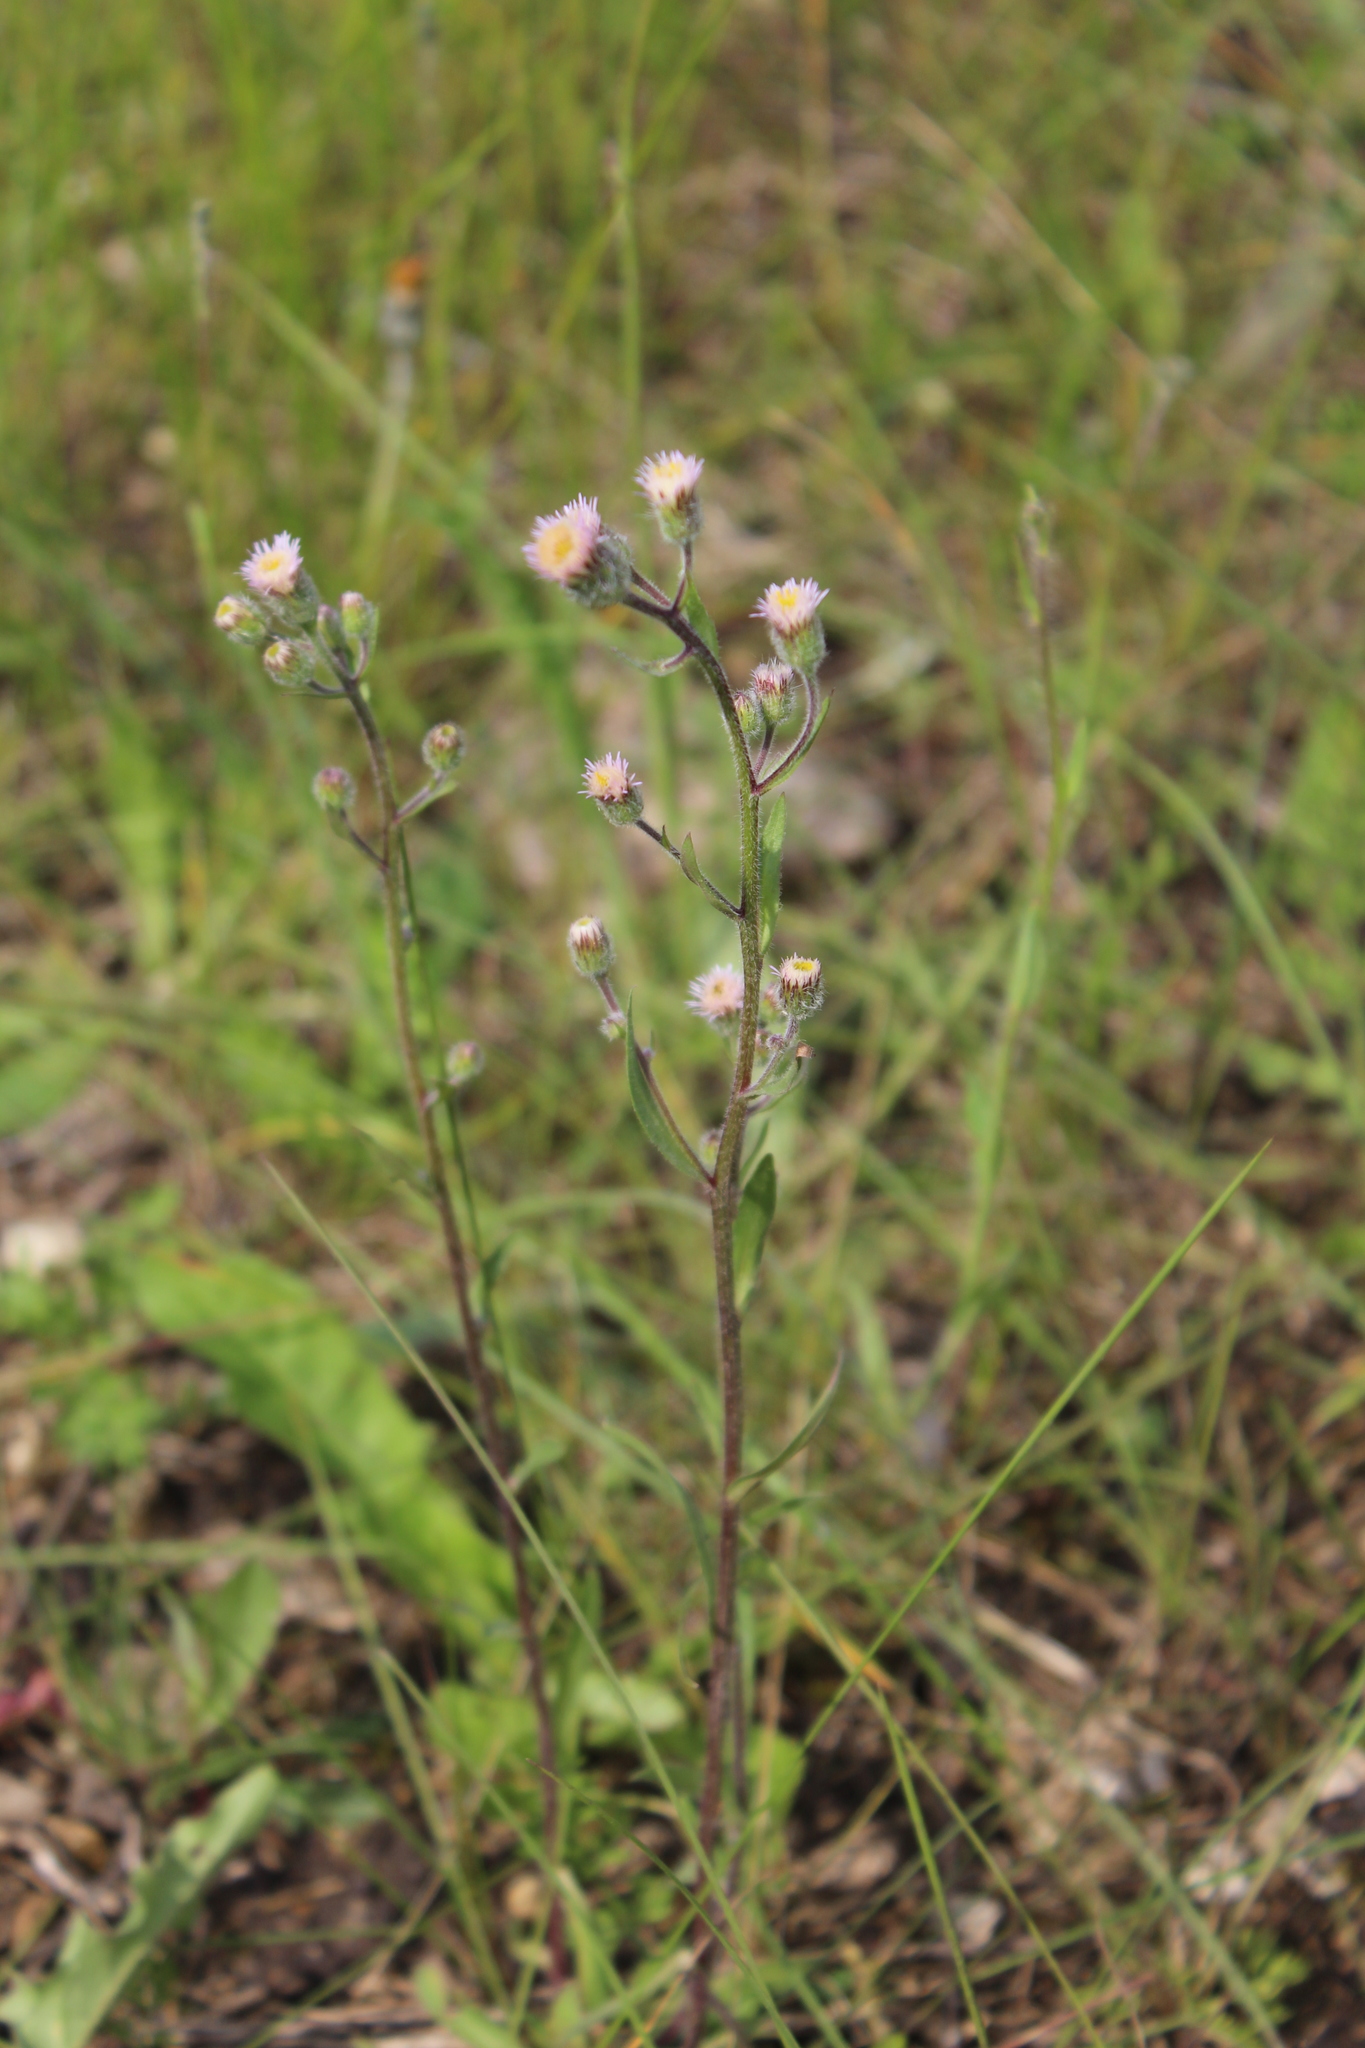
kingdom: Plantae
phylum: Tracheophyta
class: Magnoliopsida
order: Asterales
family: Asteraceae
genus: Erigeron
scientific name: Erigeron acris
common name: Blue fleabane
